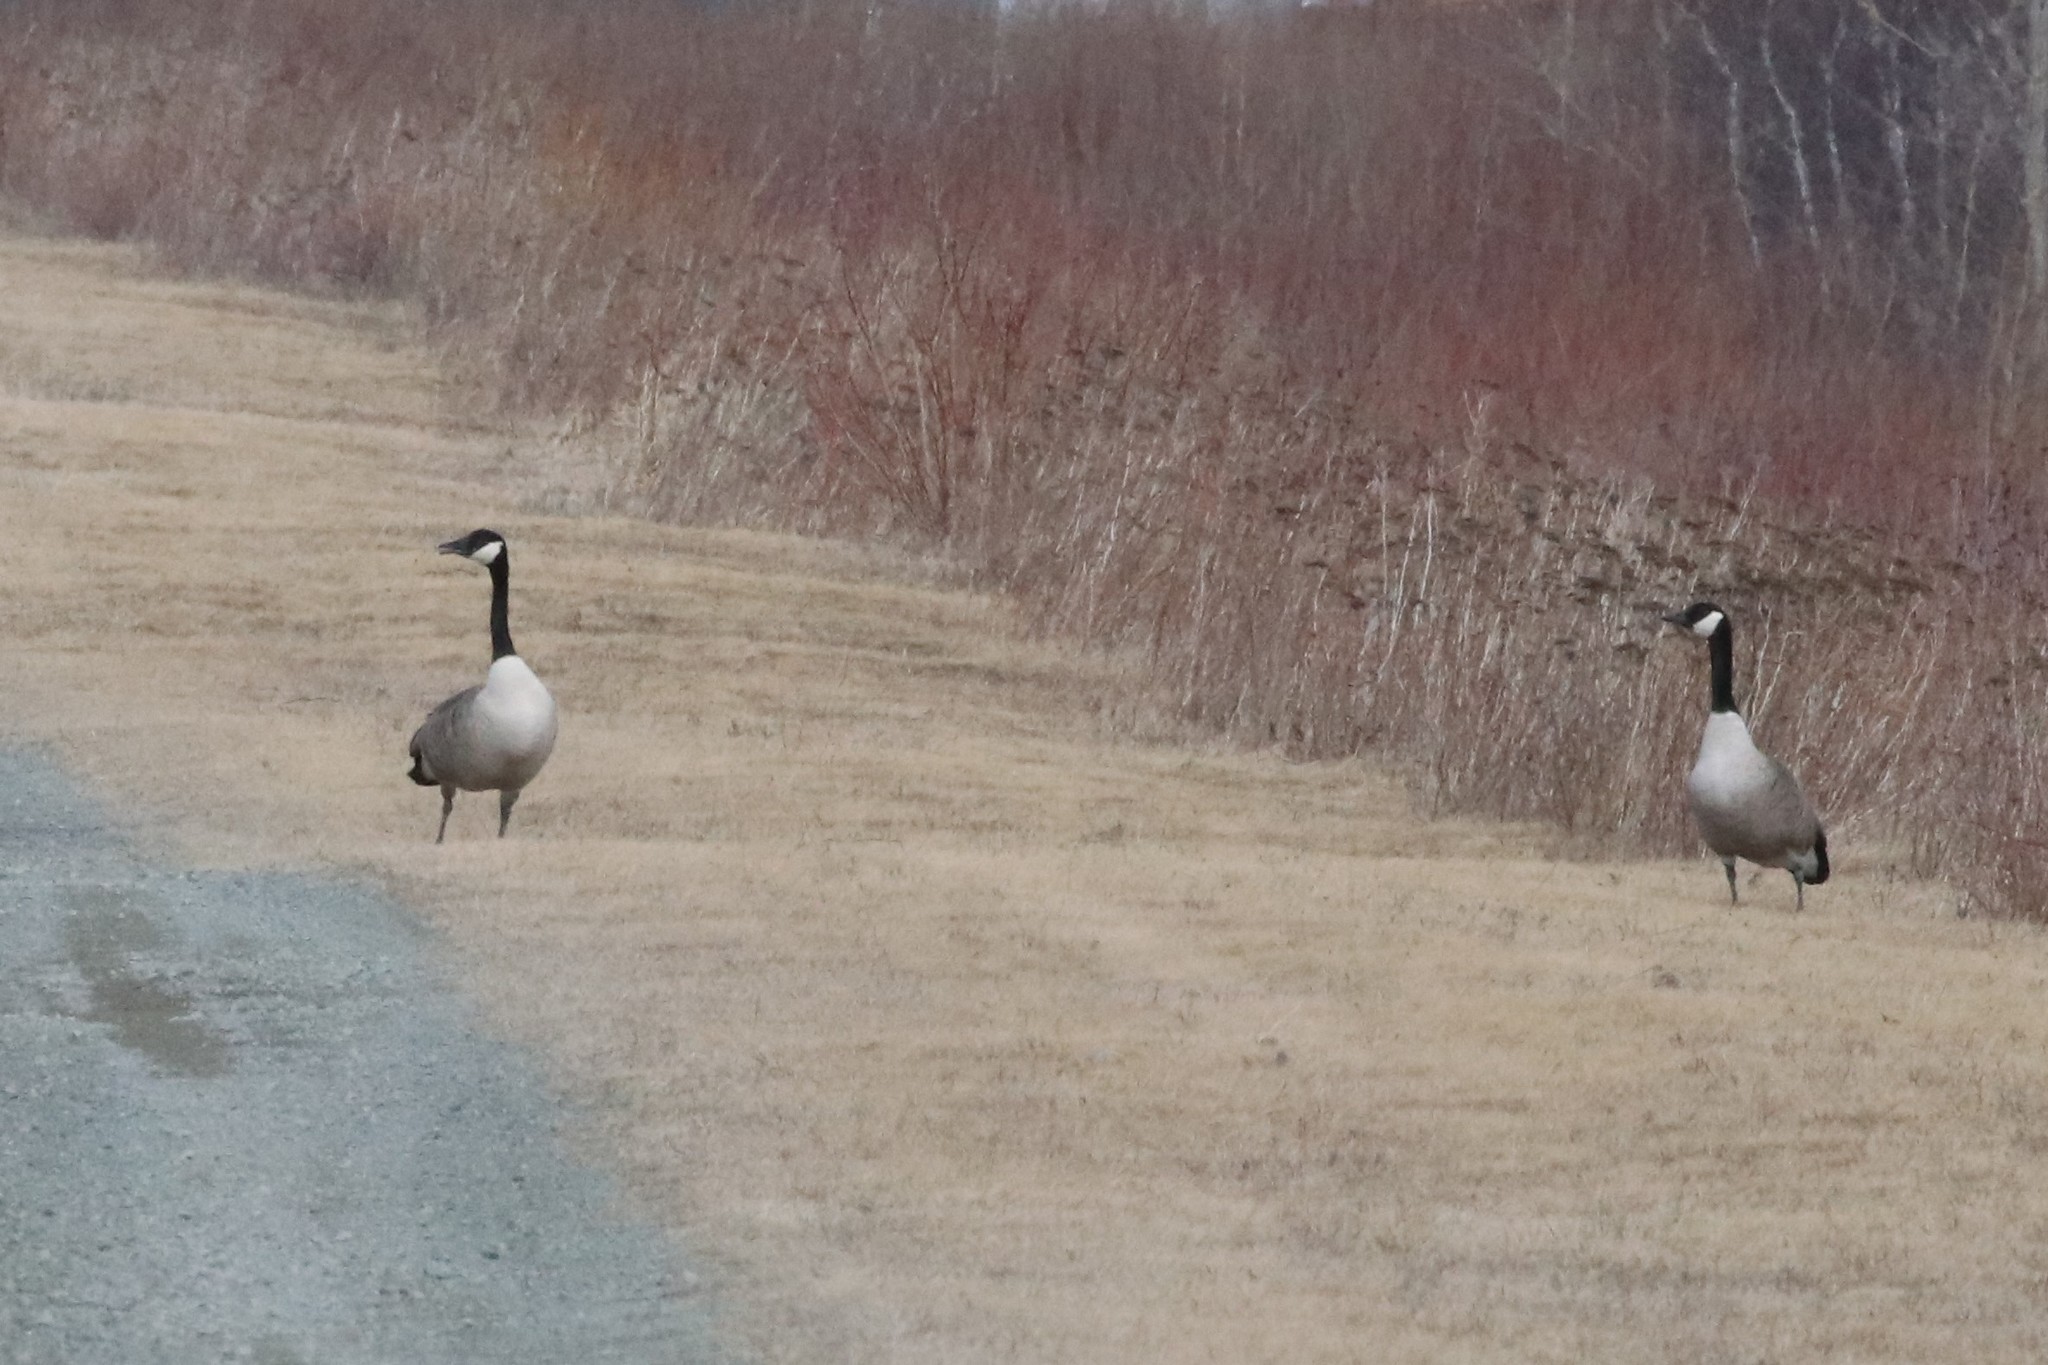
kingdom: Animalia
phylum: Chordata
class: Aves
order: Anseriformes
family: Anatidae
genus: Branta
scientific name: Branta canadensis
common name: Canada goose
